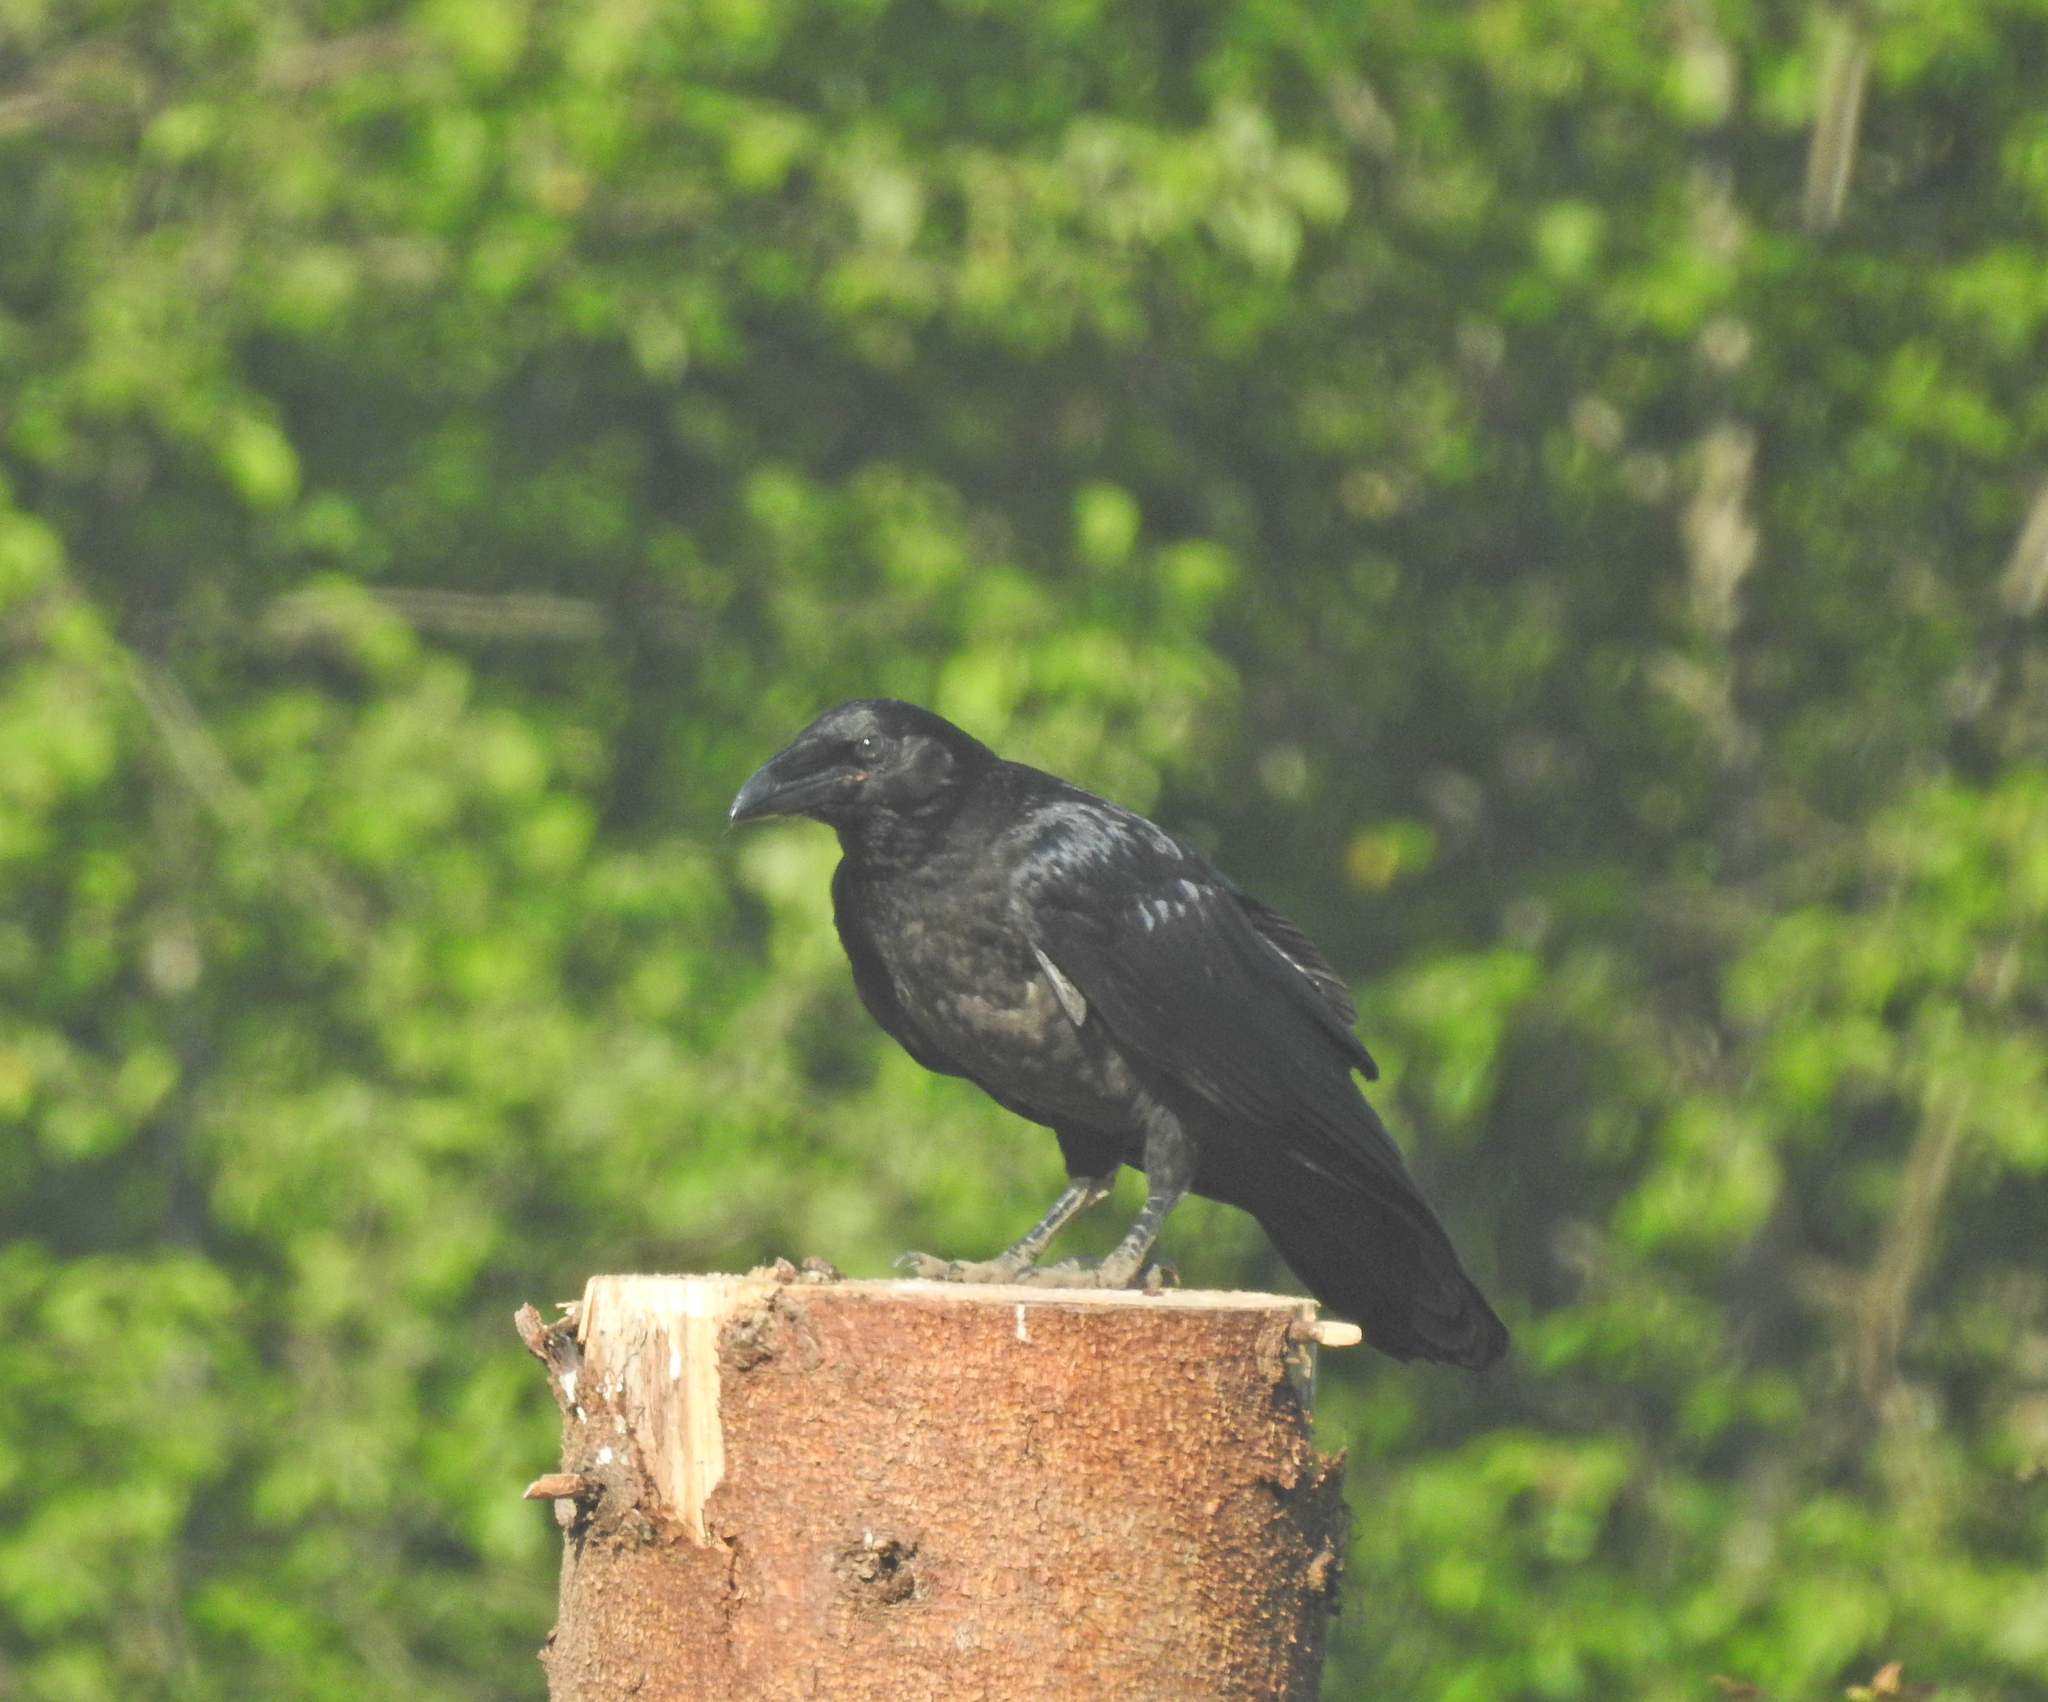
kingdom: Animalia
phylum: Chordata
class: Aves
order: Passeriformes
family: Corvidae
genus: Corvus
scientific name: Corvus corax
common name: Common raven
